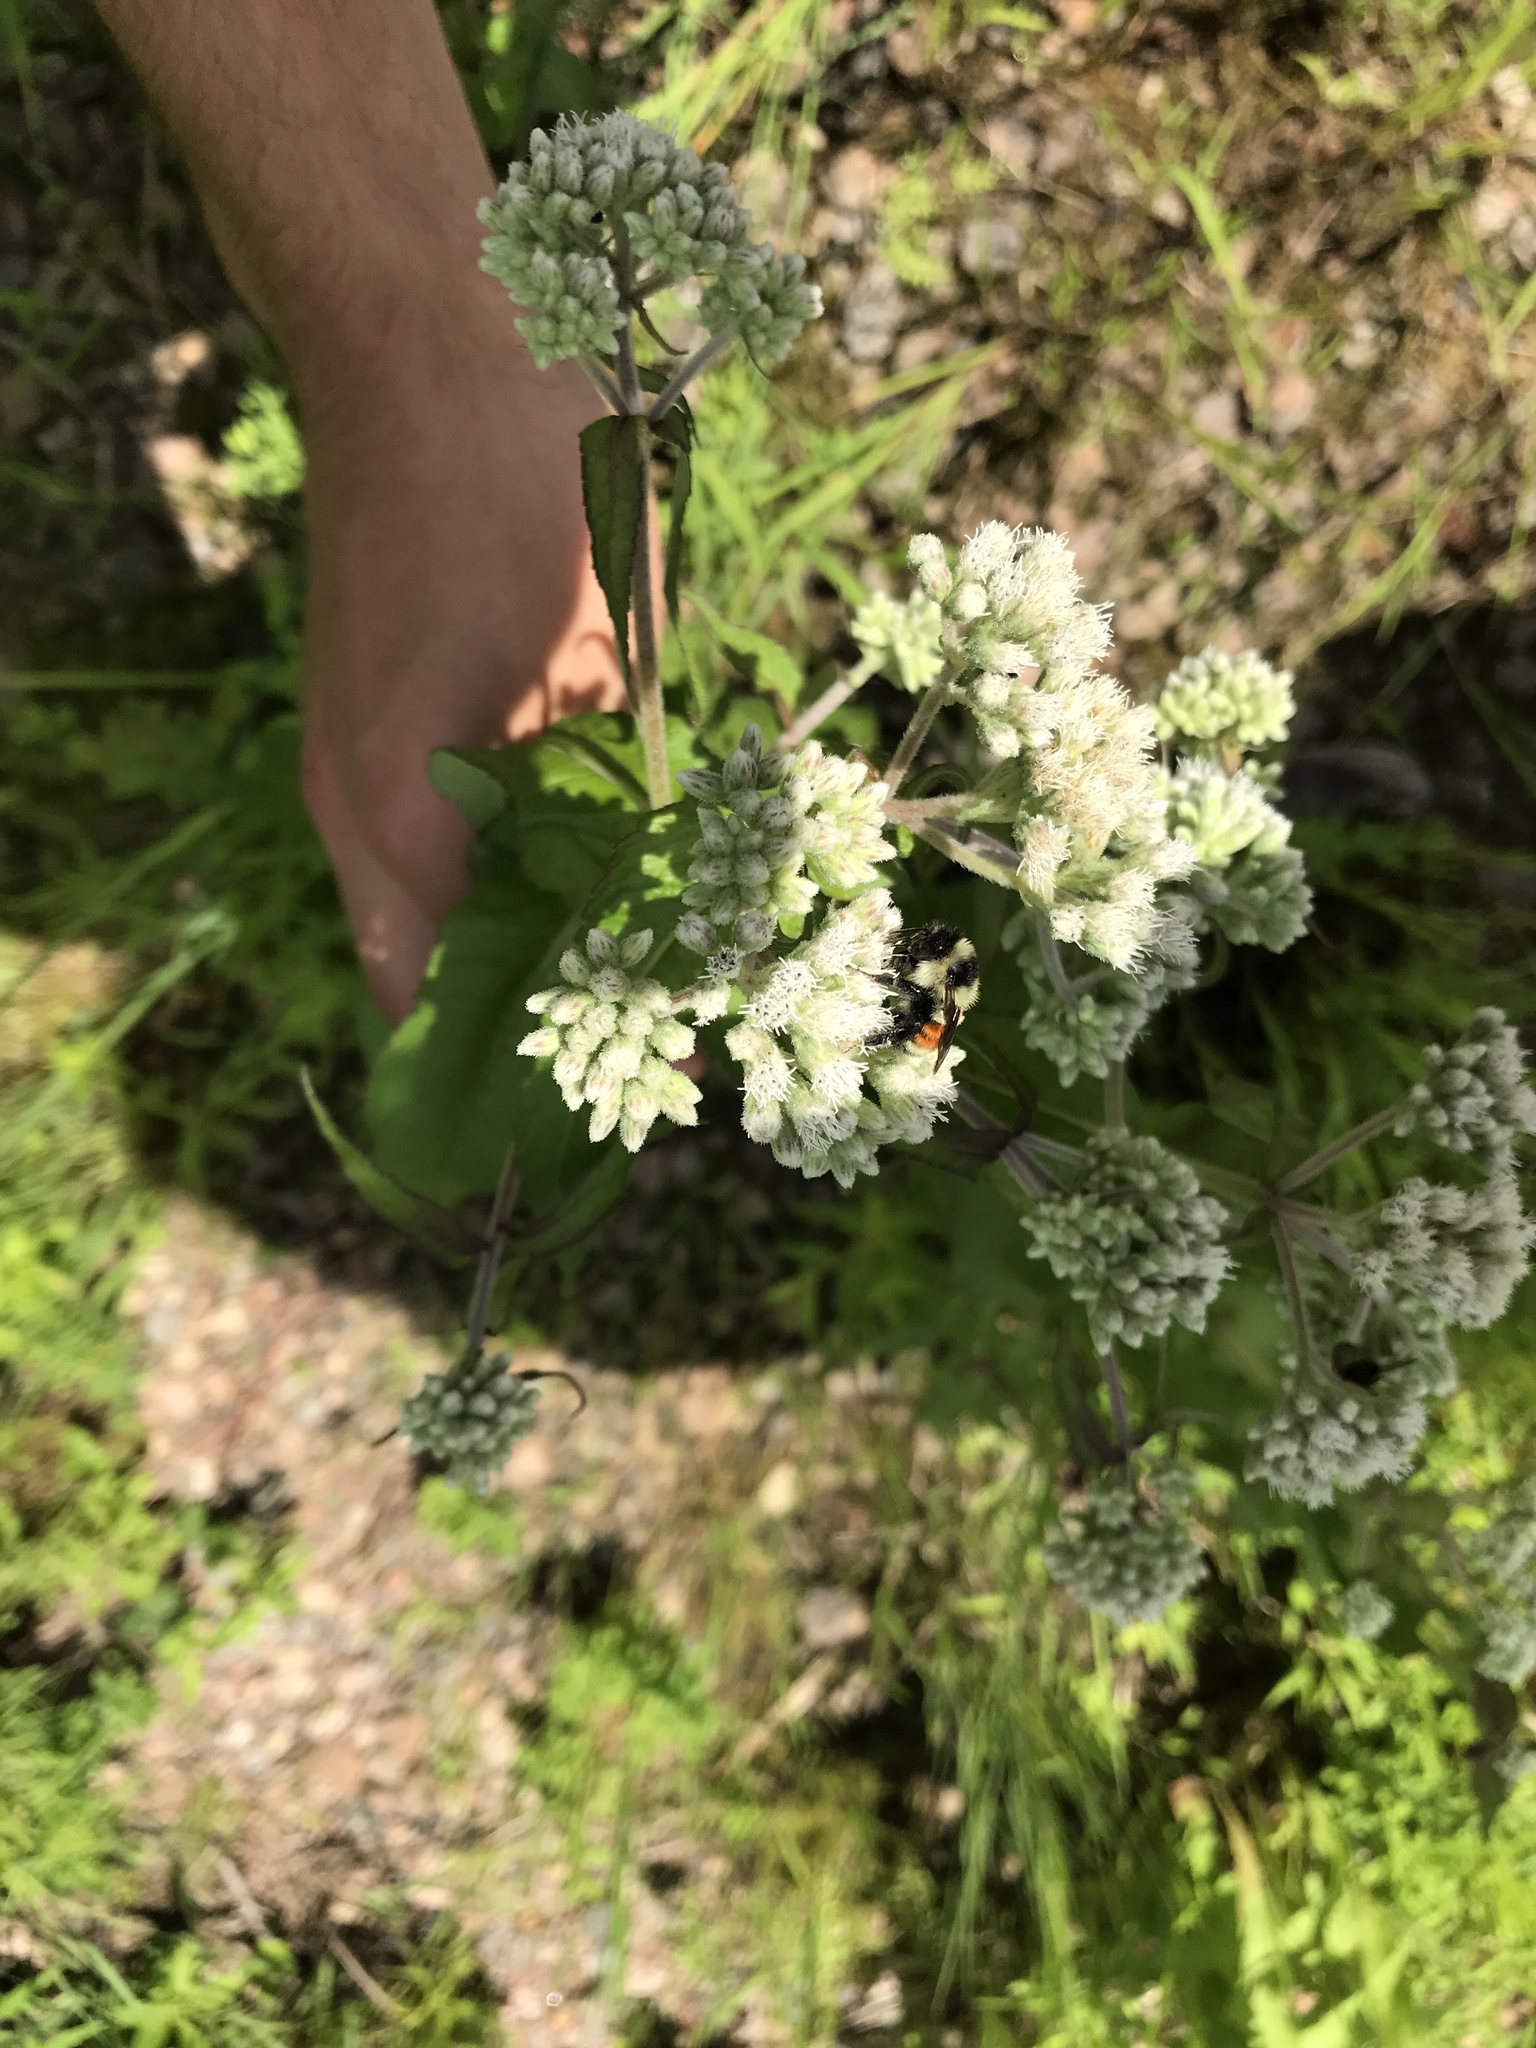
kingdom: Plantae
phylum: Tracheophyta
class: Magnoliopsida
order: Asterales
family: Asteraceae
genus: Eupatorium
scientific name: Eupatorium perfoliatum
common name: Boneset
